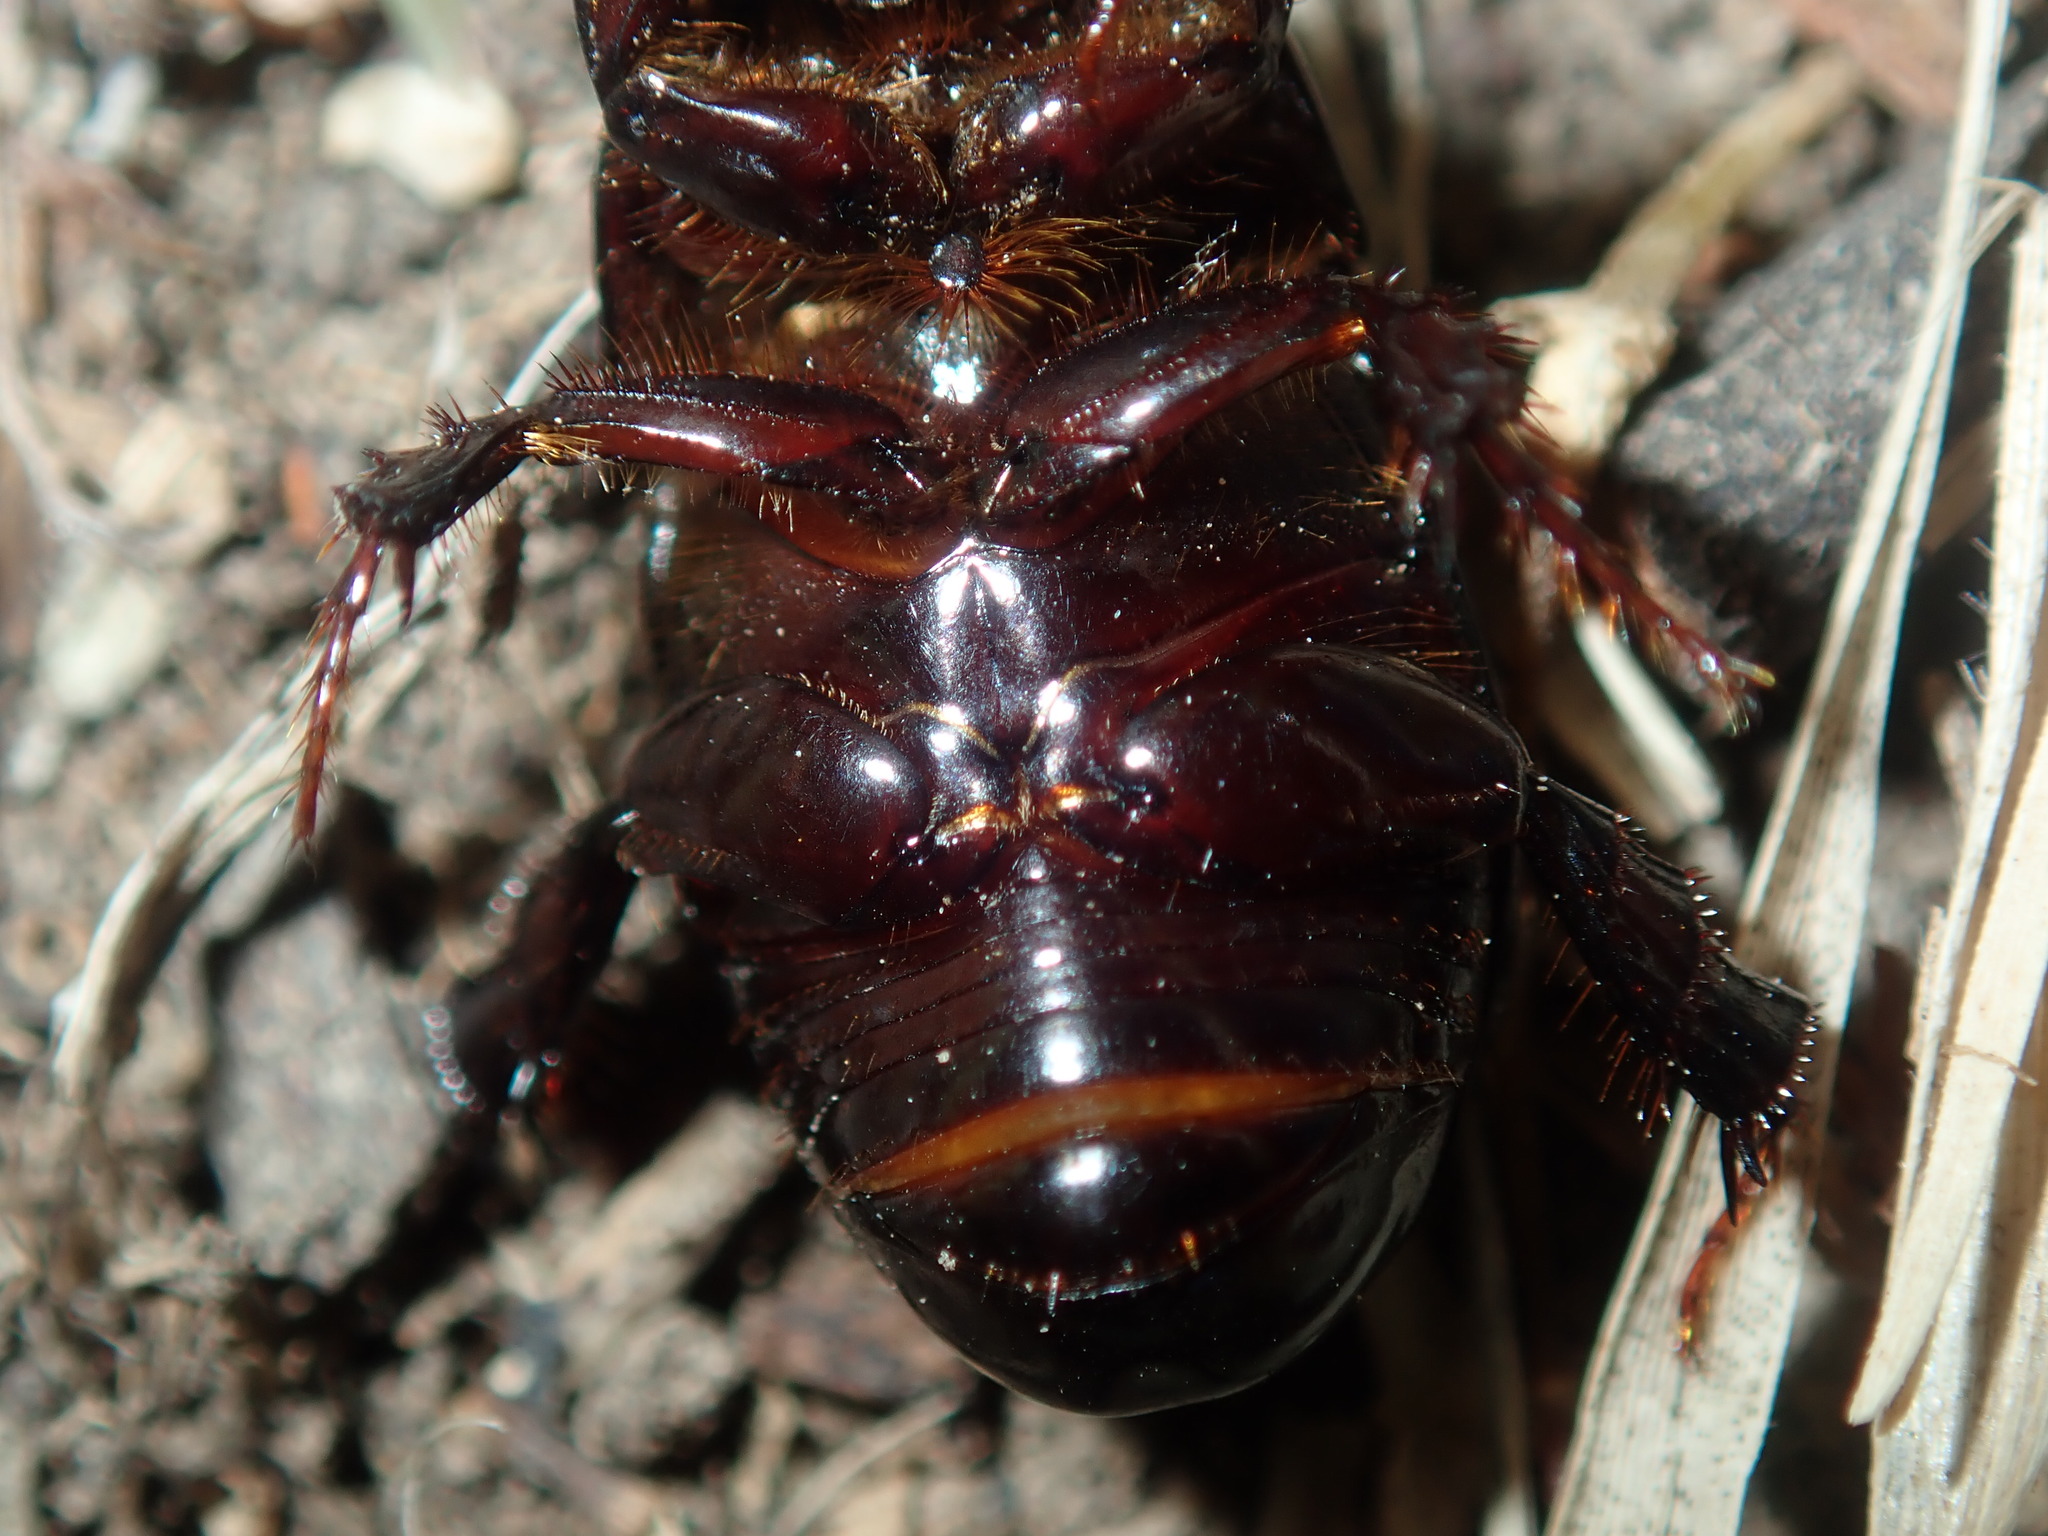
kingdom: Animalia
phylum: Arthropoda
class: Insecta
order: Coleoptera
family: Scarabaeidae
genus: Heteronychus
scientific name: Heteronychus arator
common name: African black beetle
